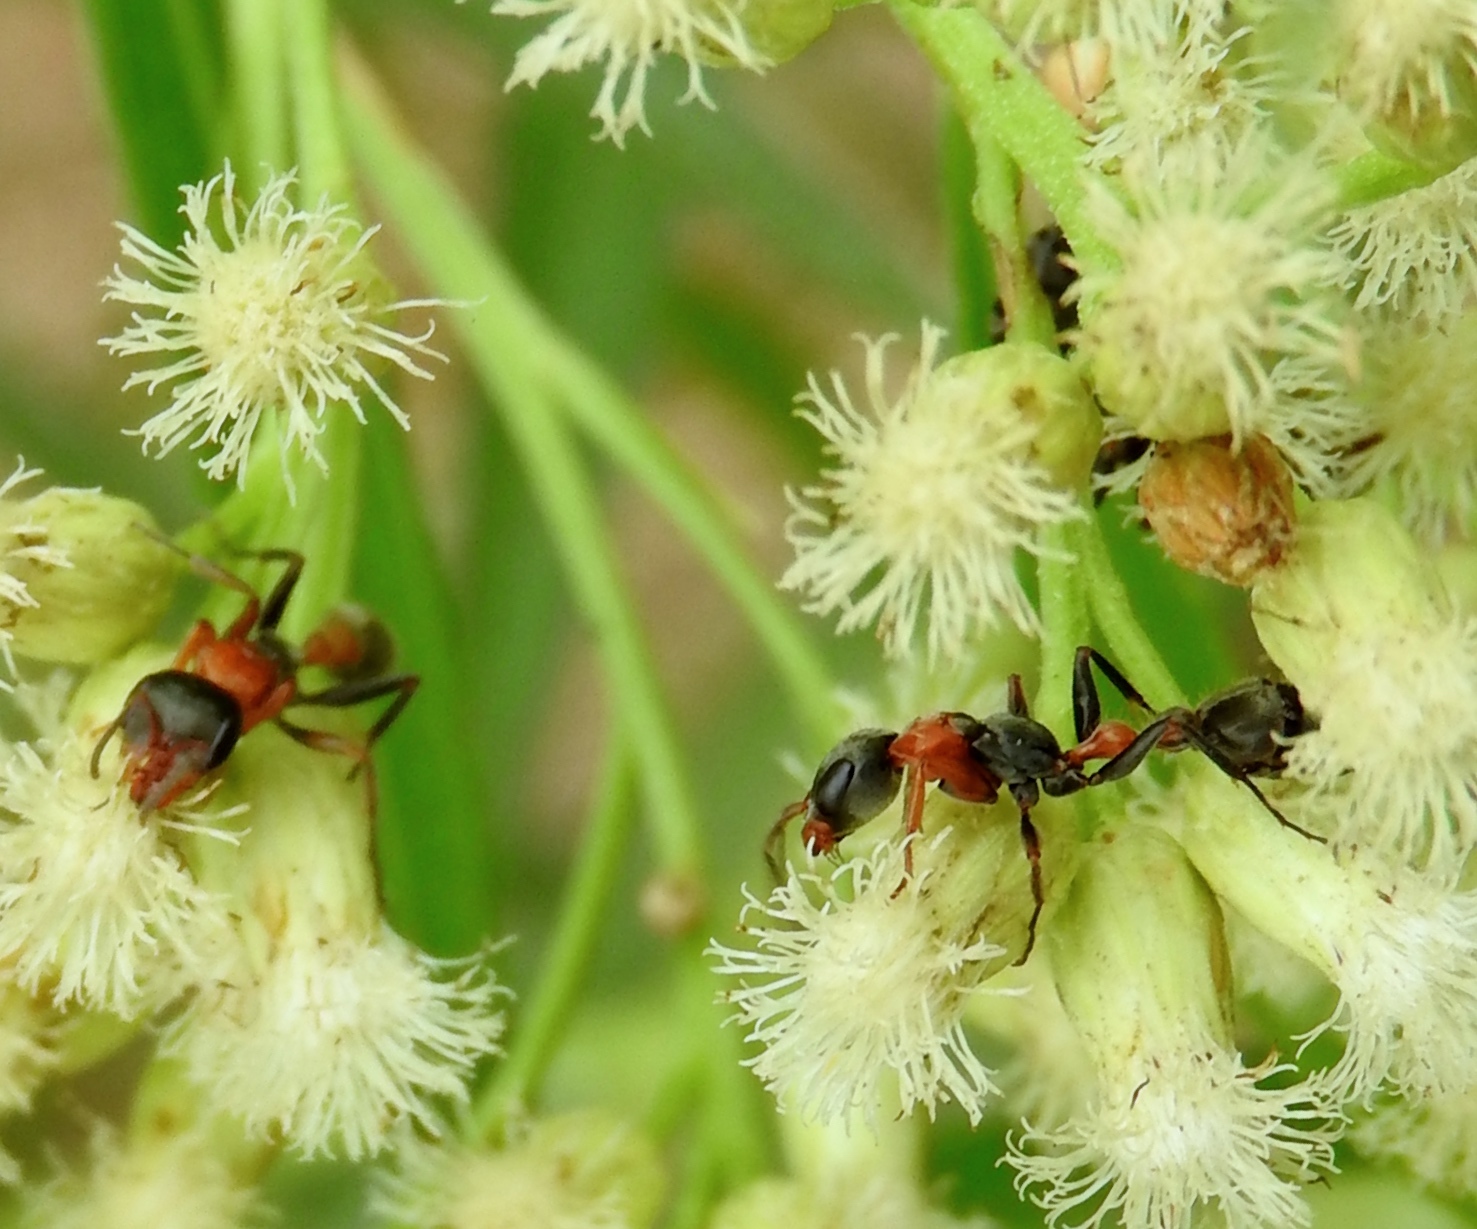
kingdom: Animalia
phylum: Arthropoda
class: Insecta
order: Hymenoptera
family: Formicidae
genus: Pseudomyrmex
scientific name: Pseudomyrmex gracilis
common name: Graceful twig ant
